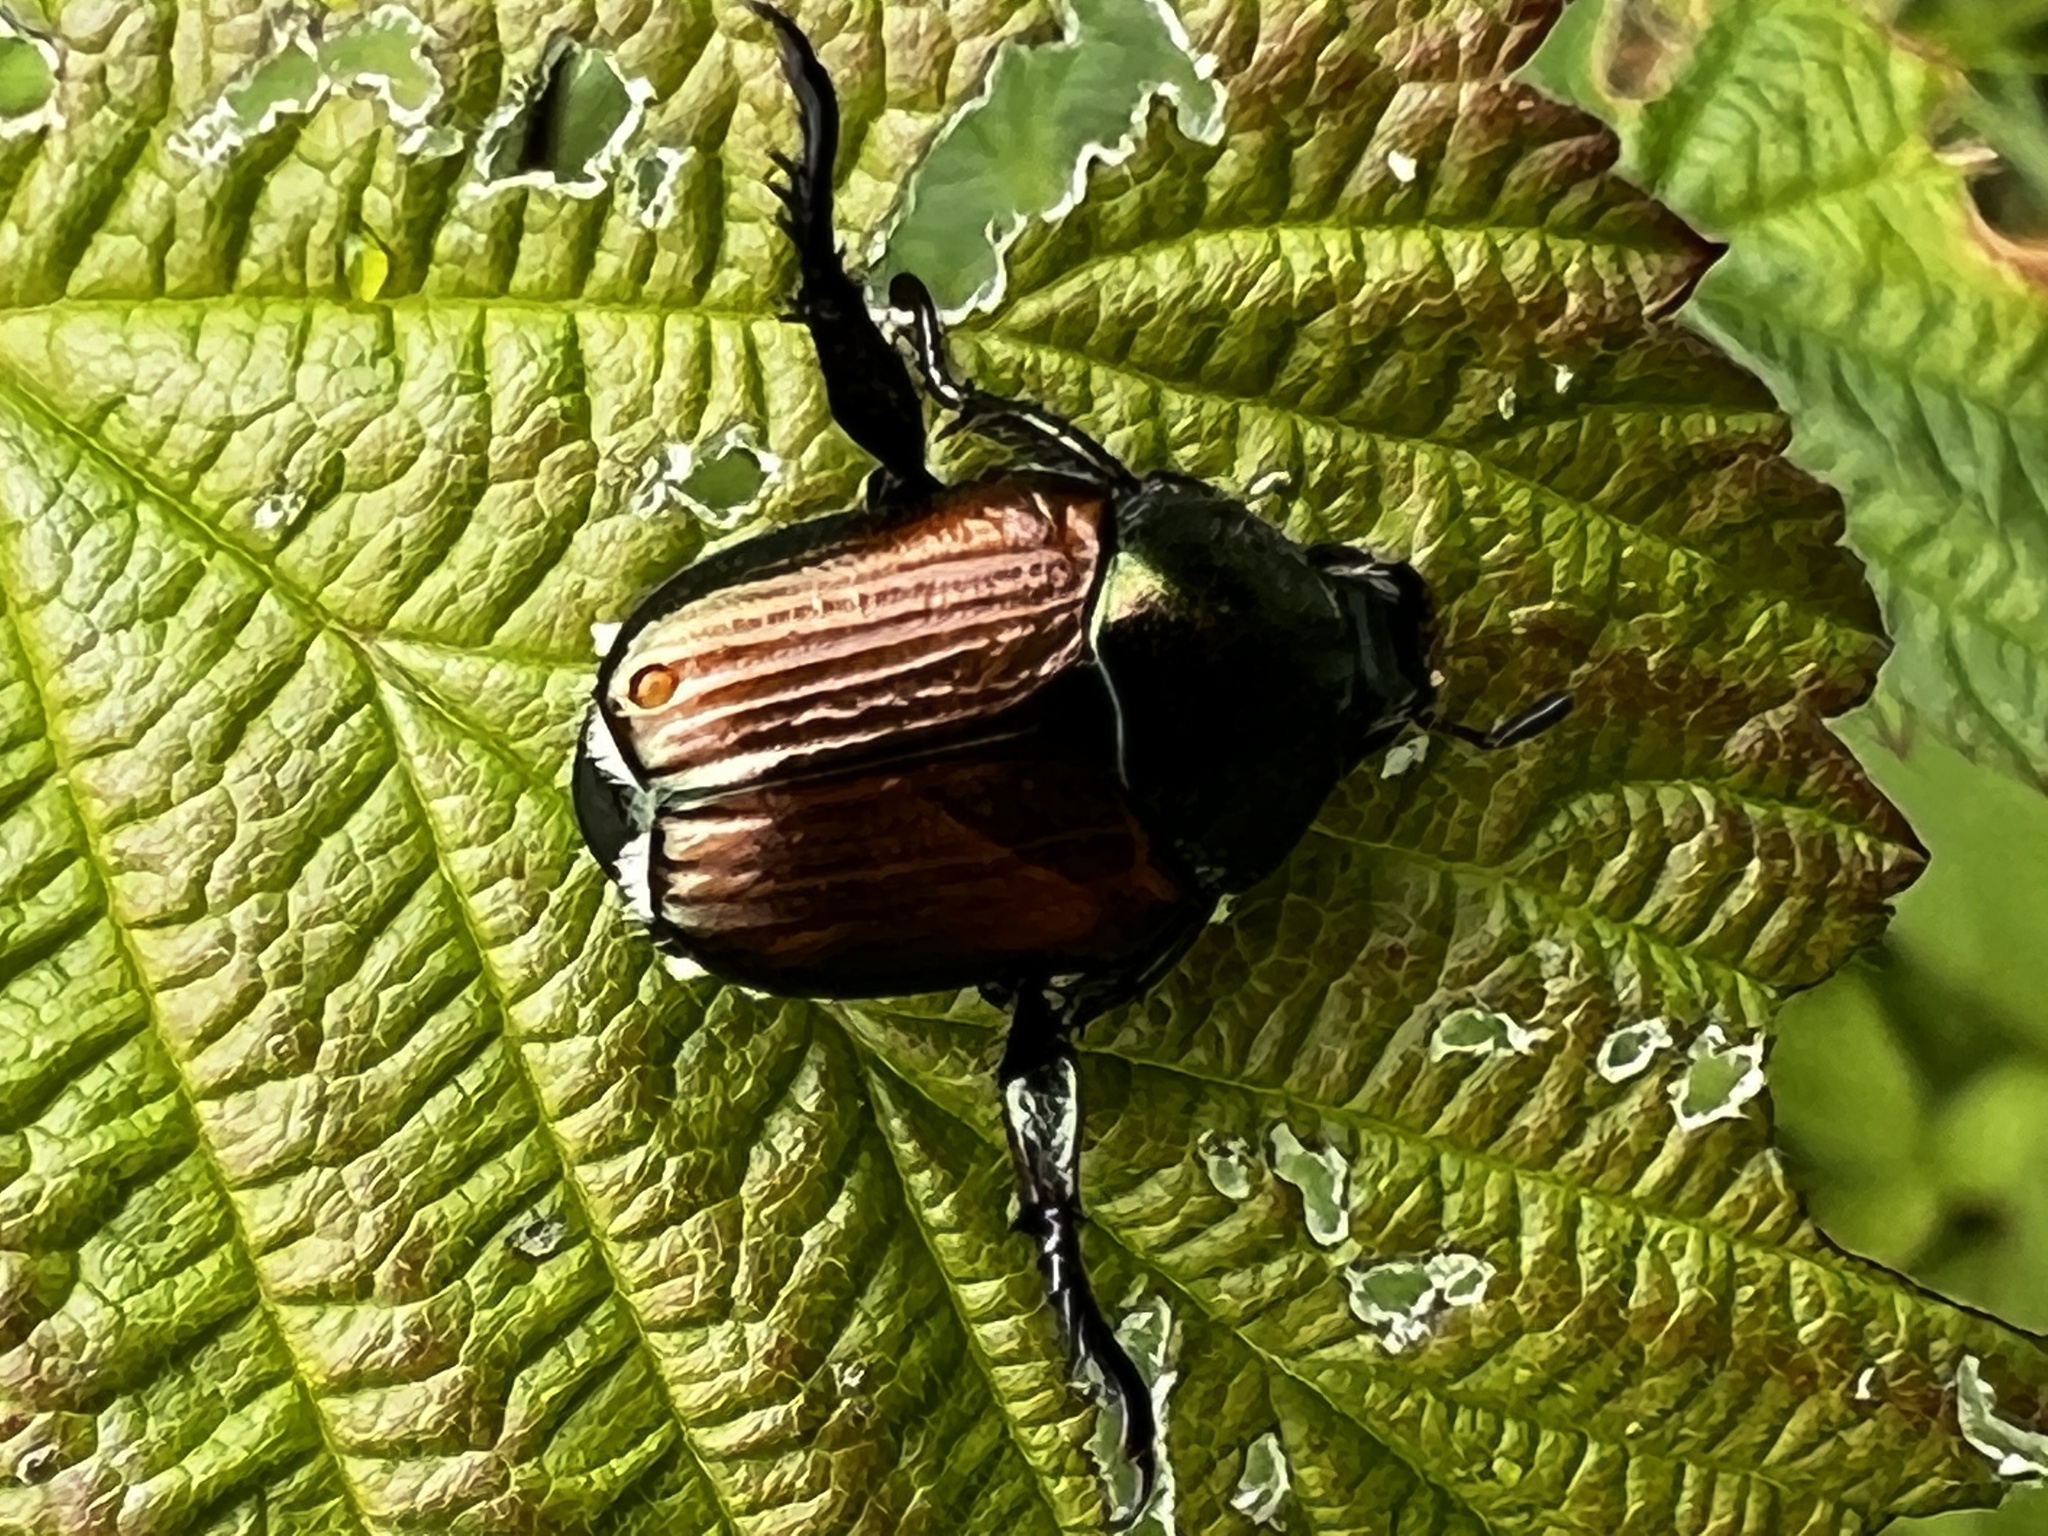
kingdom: Animalia
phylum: Arthropoda
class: Insecta
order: Coleoptera
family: Scarabaeidae
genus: Popillia
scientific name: Popillia japonica
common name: Japanese beetle
